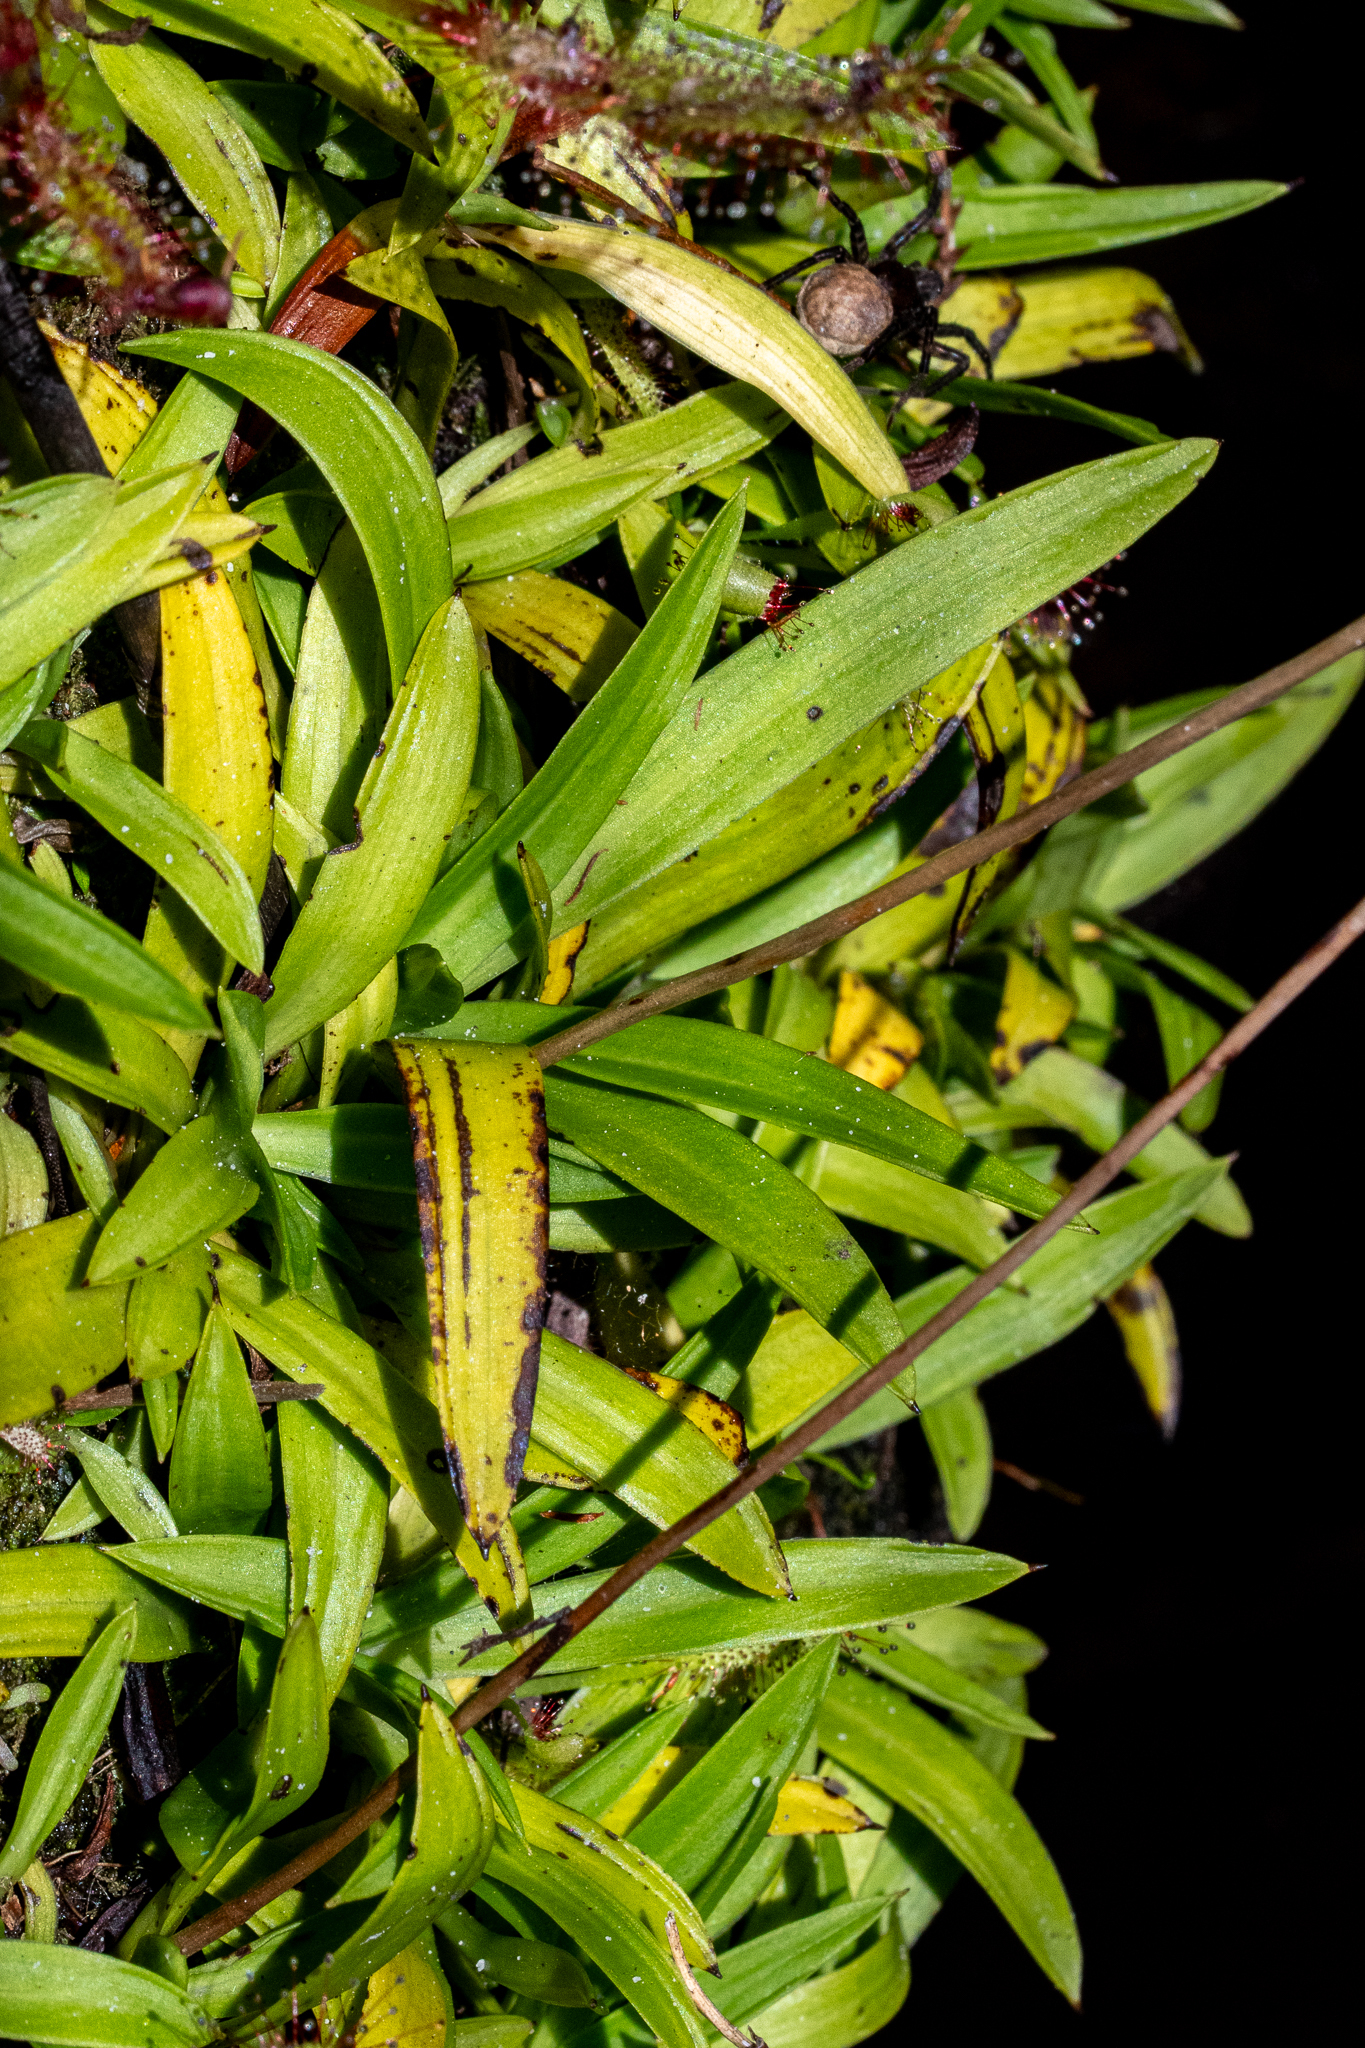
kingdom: Plantae
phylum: Tracheophyta
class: Liliopsida
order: Asparagales
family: Orchidaceae
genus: Disa
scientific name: Disa tripetaloides
